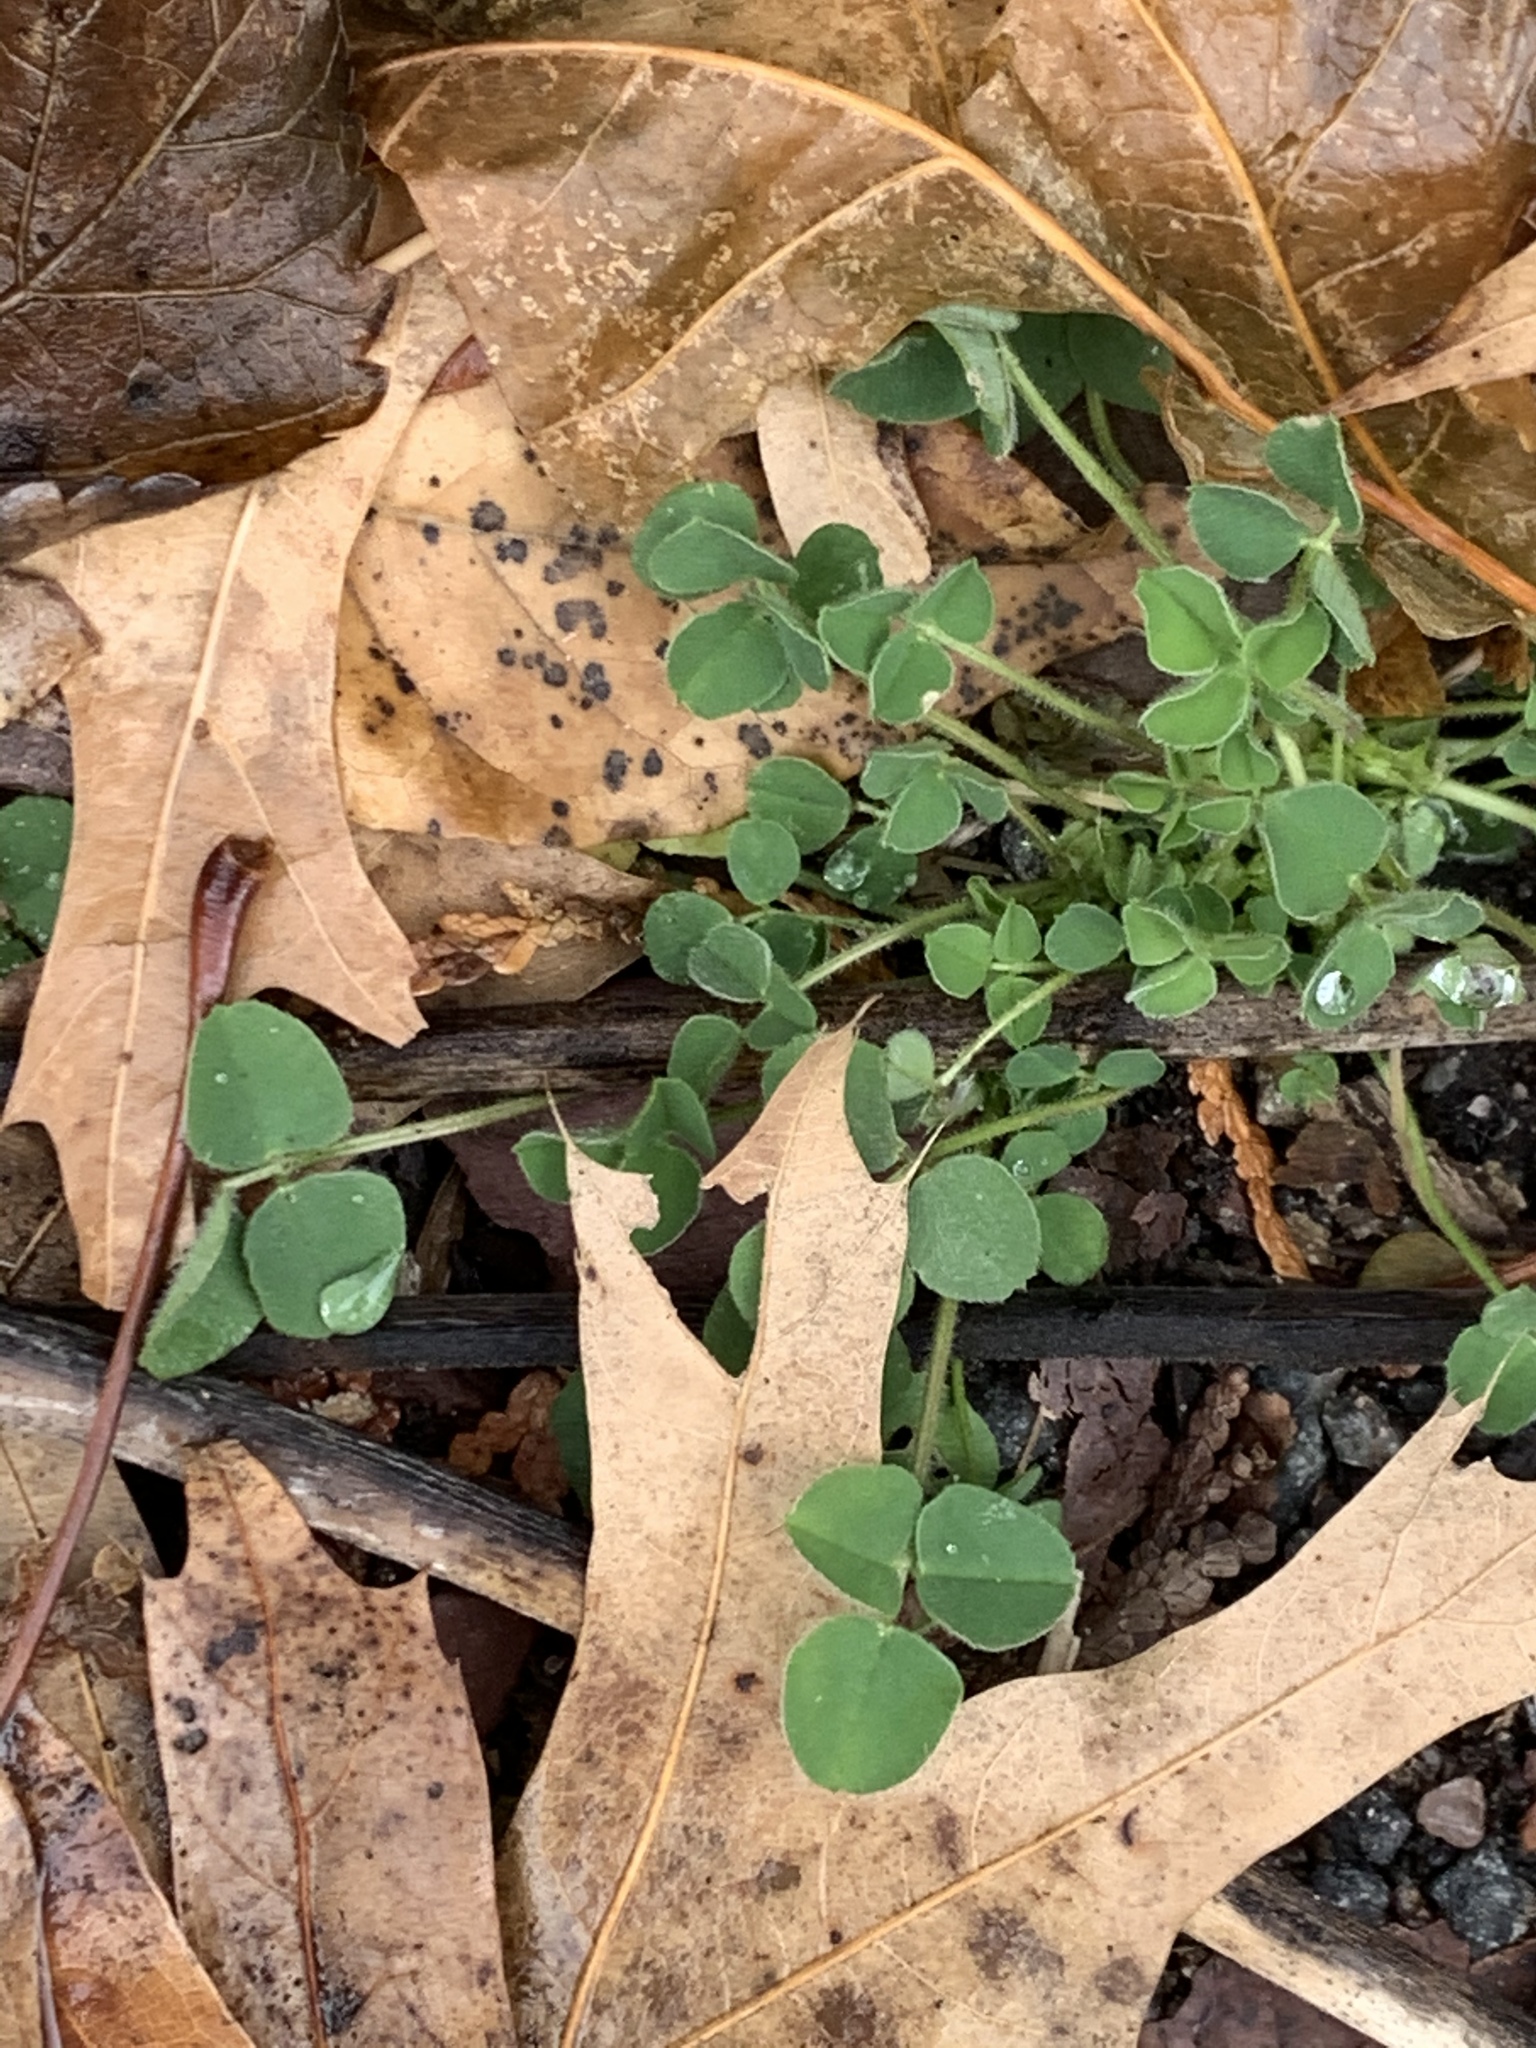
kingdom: Plantae
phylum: Tracheophyta
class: Magnoliopsida
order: Fabales
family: Fabaceae
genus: Medicago
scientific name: Medicago lupulina
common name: Black medick
